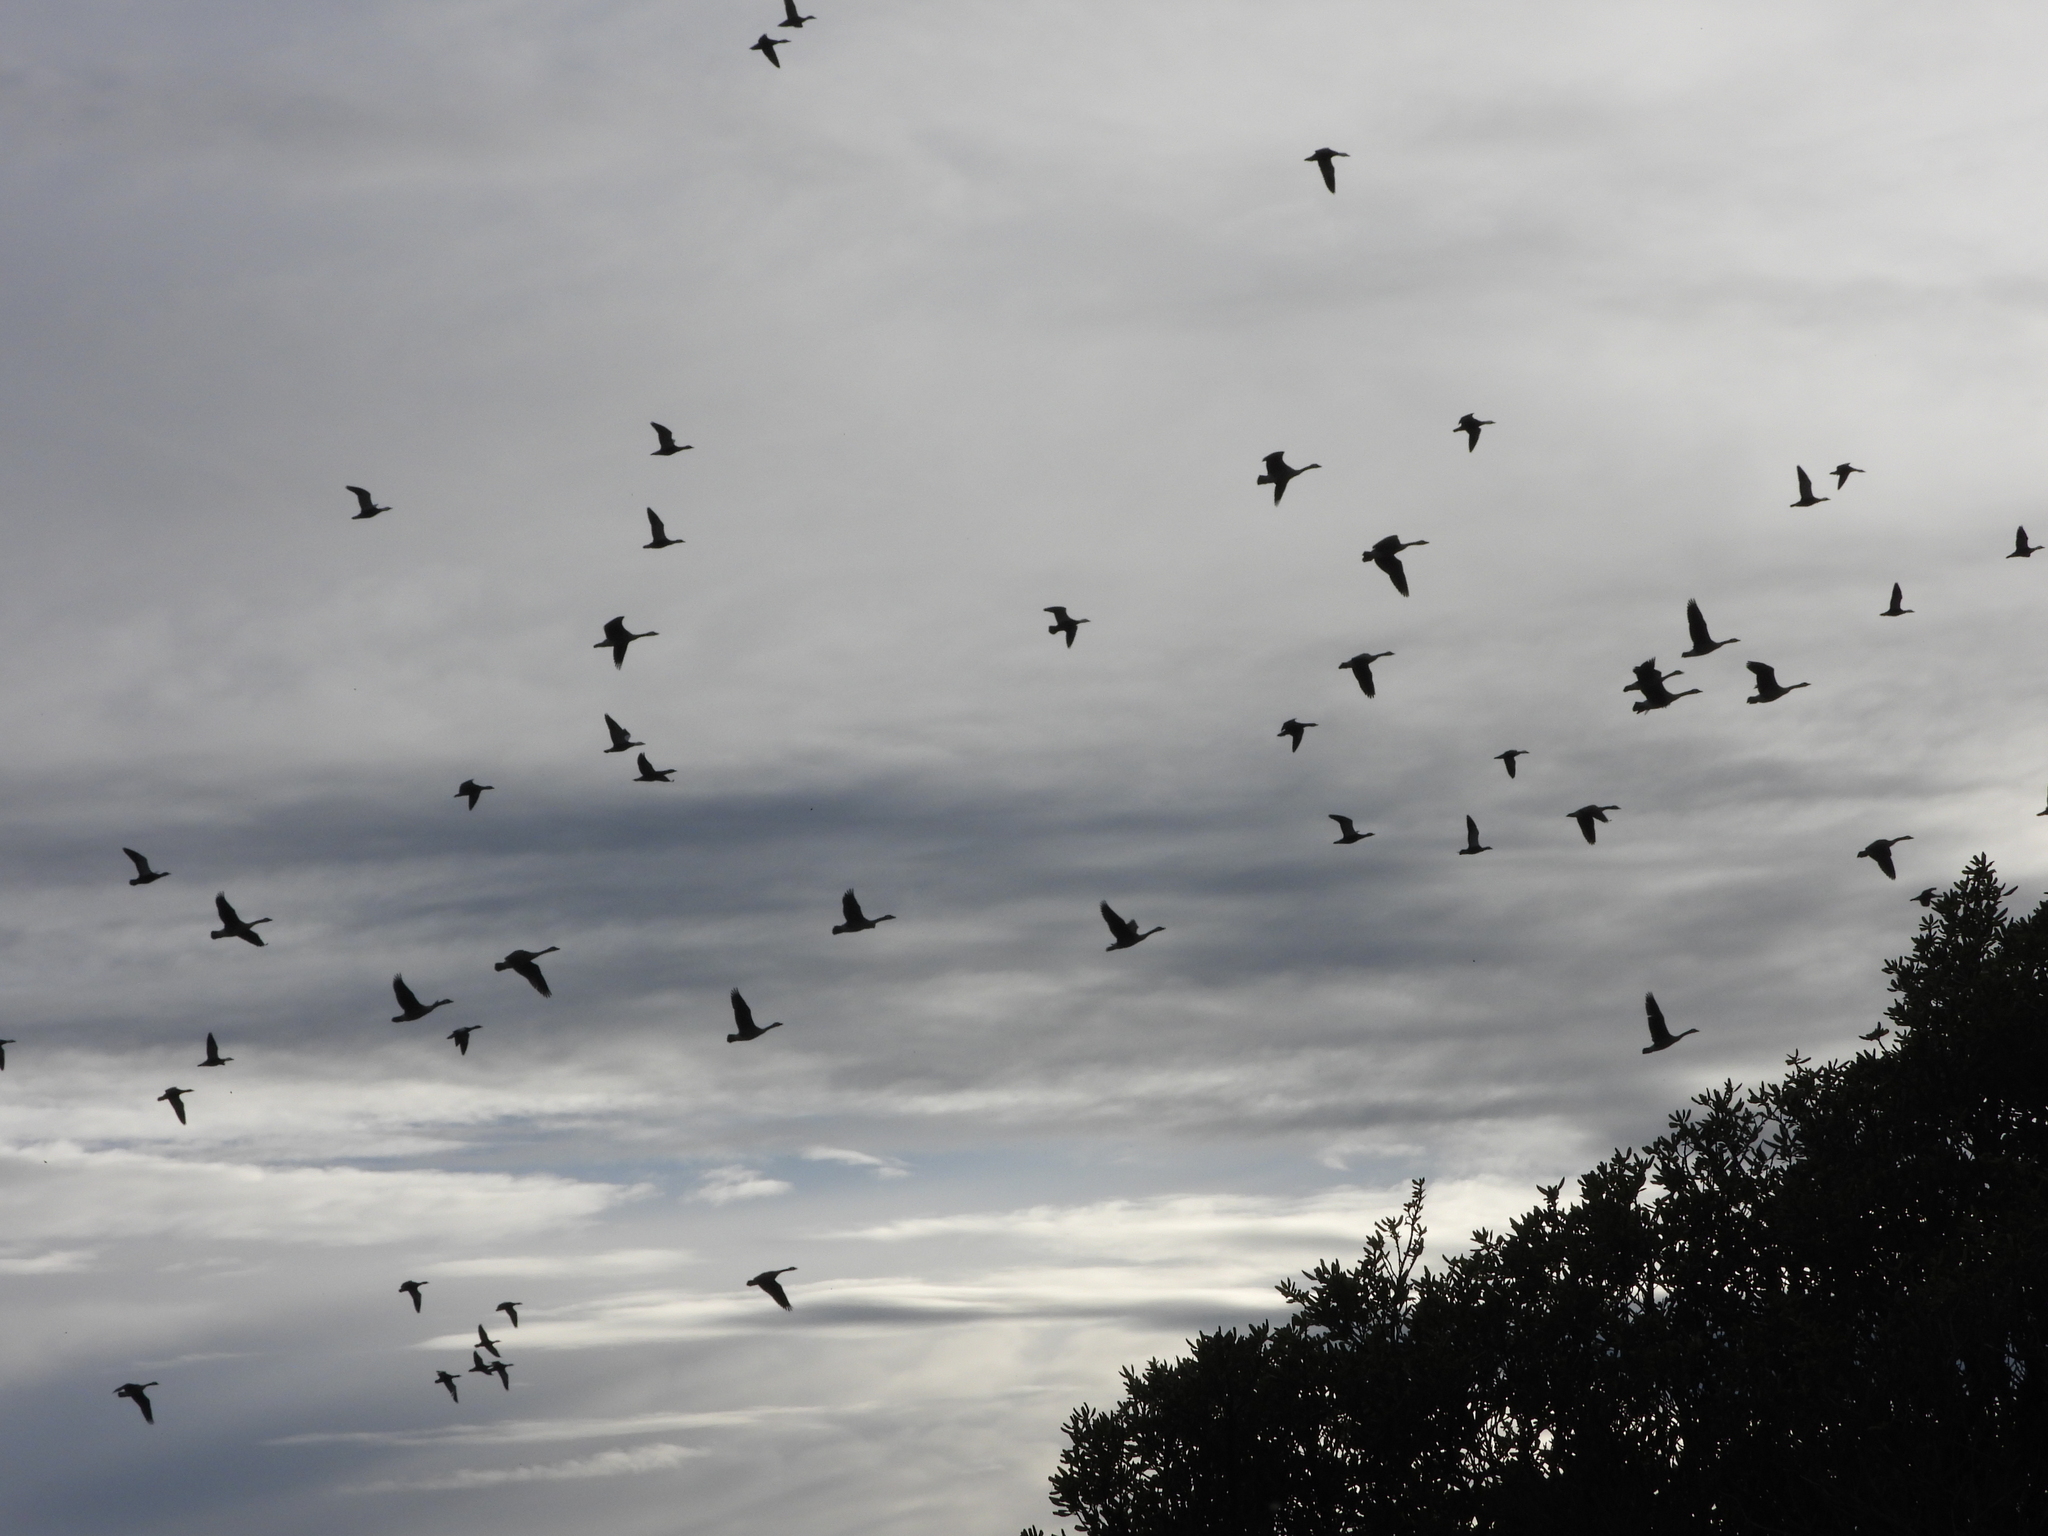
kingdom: Animalia
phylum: Chordata
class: Aves
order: Anseriformes
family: Anatidae
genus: Branta
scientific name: Branta canadensis
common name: Canada goose
